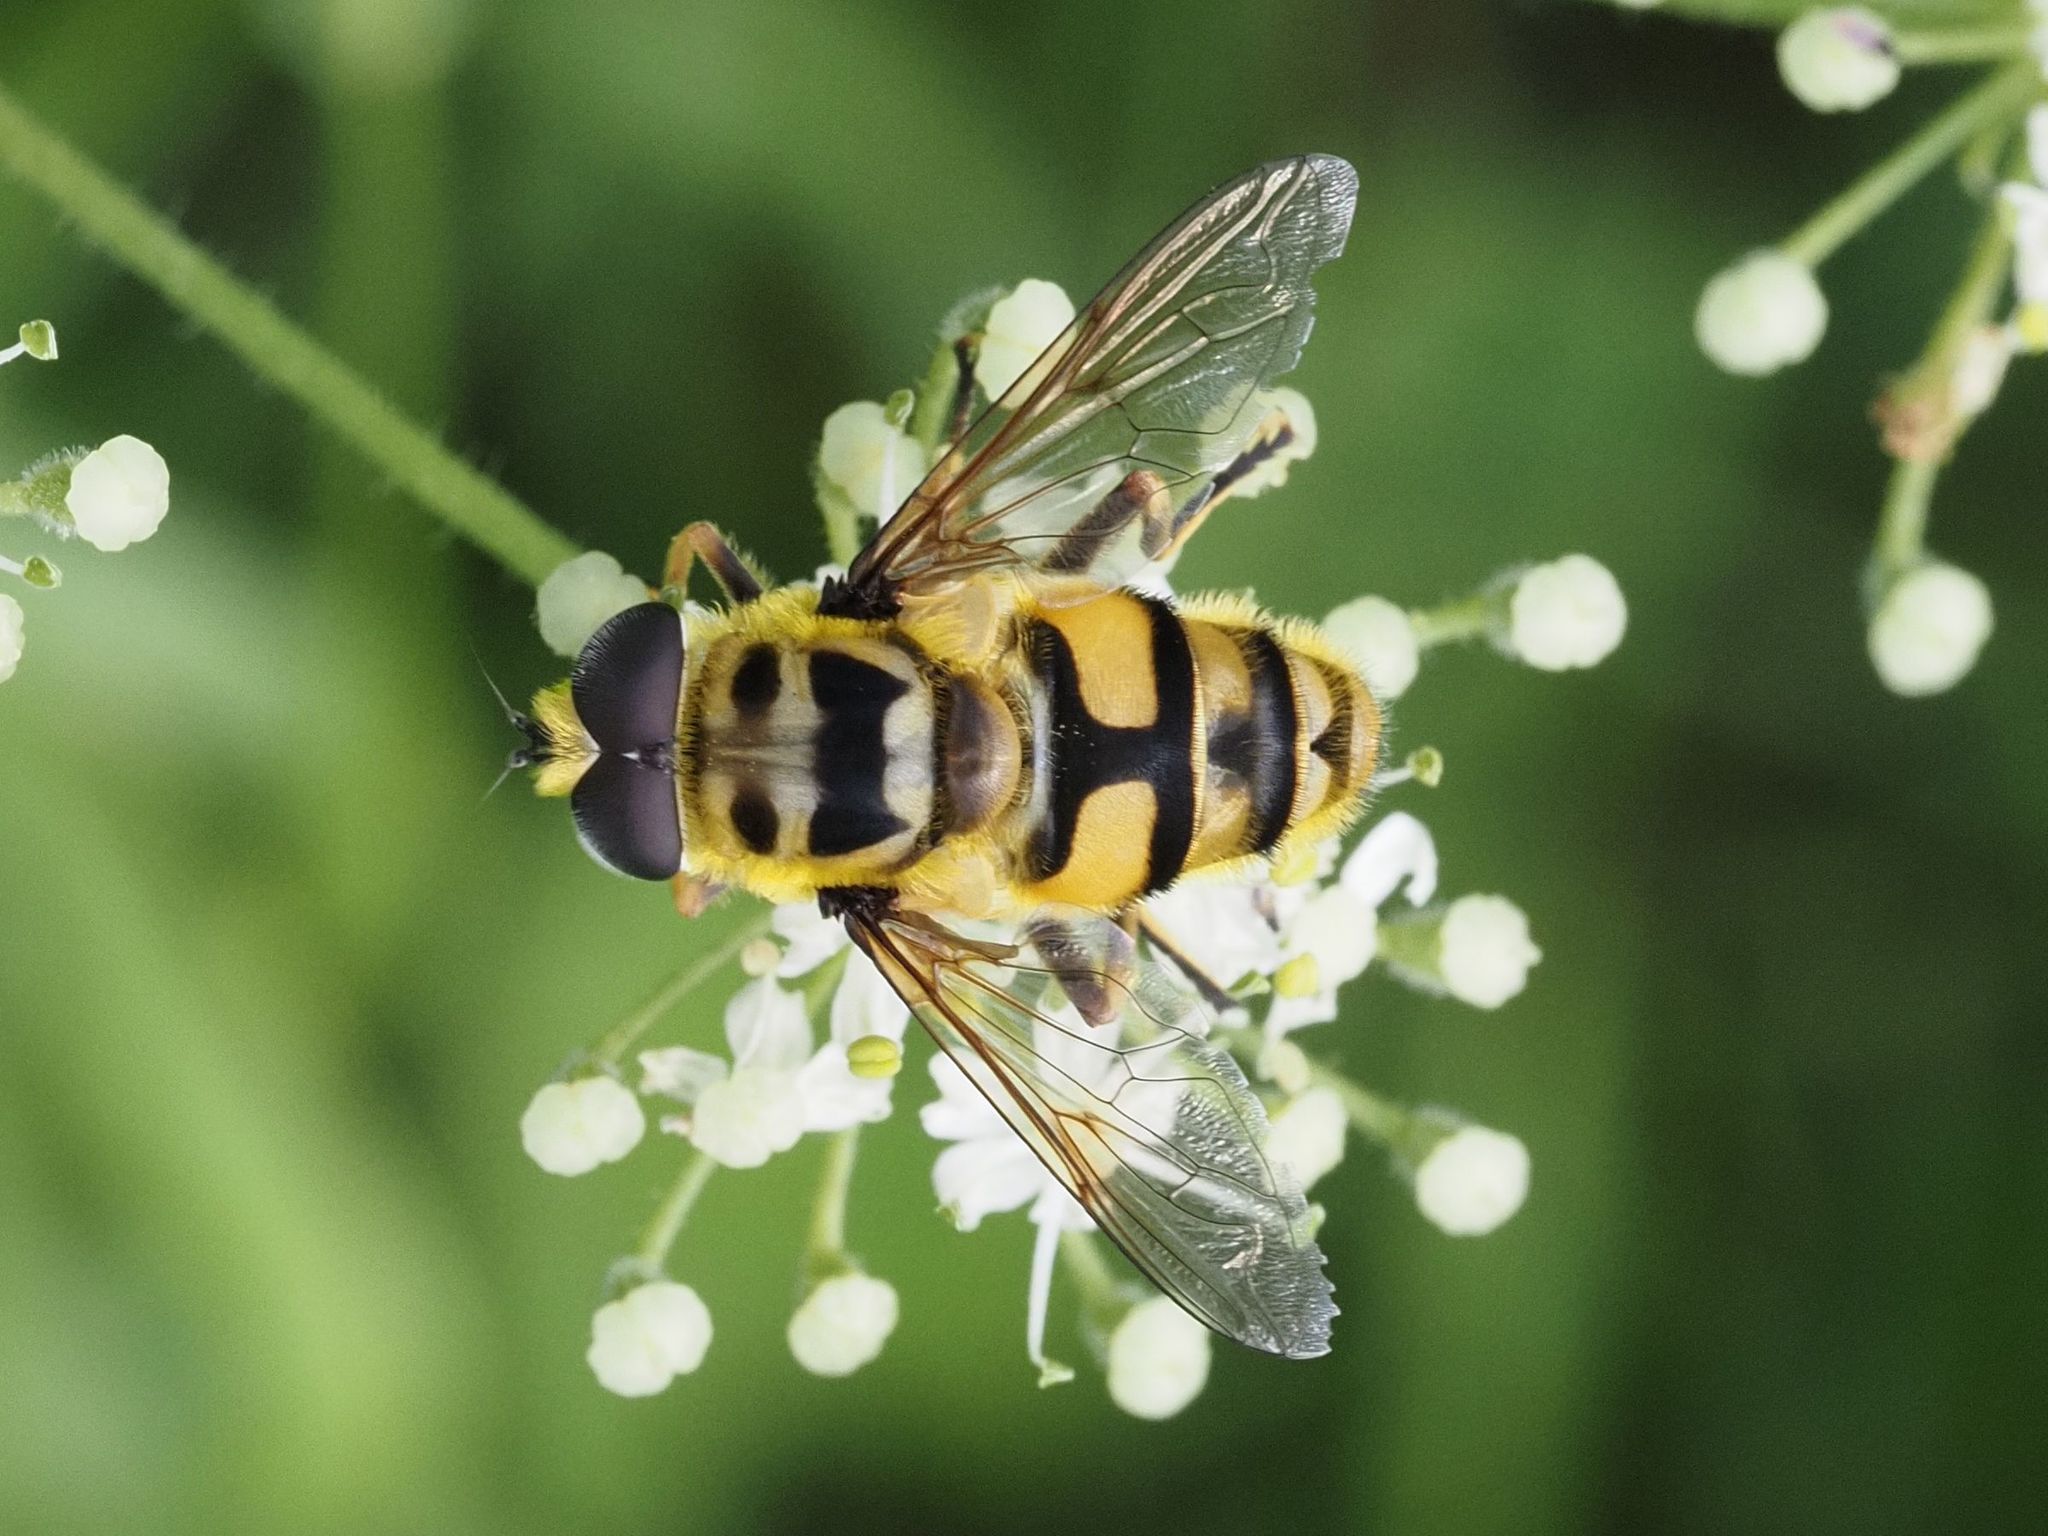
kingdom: Animalia
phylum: Arthropoda
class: Insecta
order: Diptera
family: Syrphidae
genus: Myathropa
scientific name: Myathropa florea
